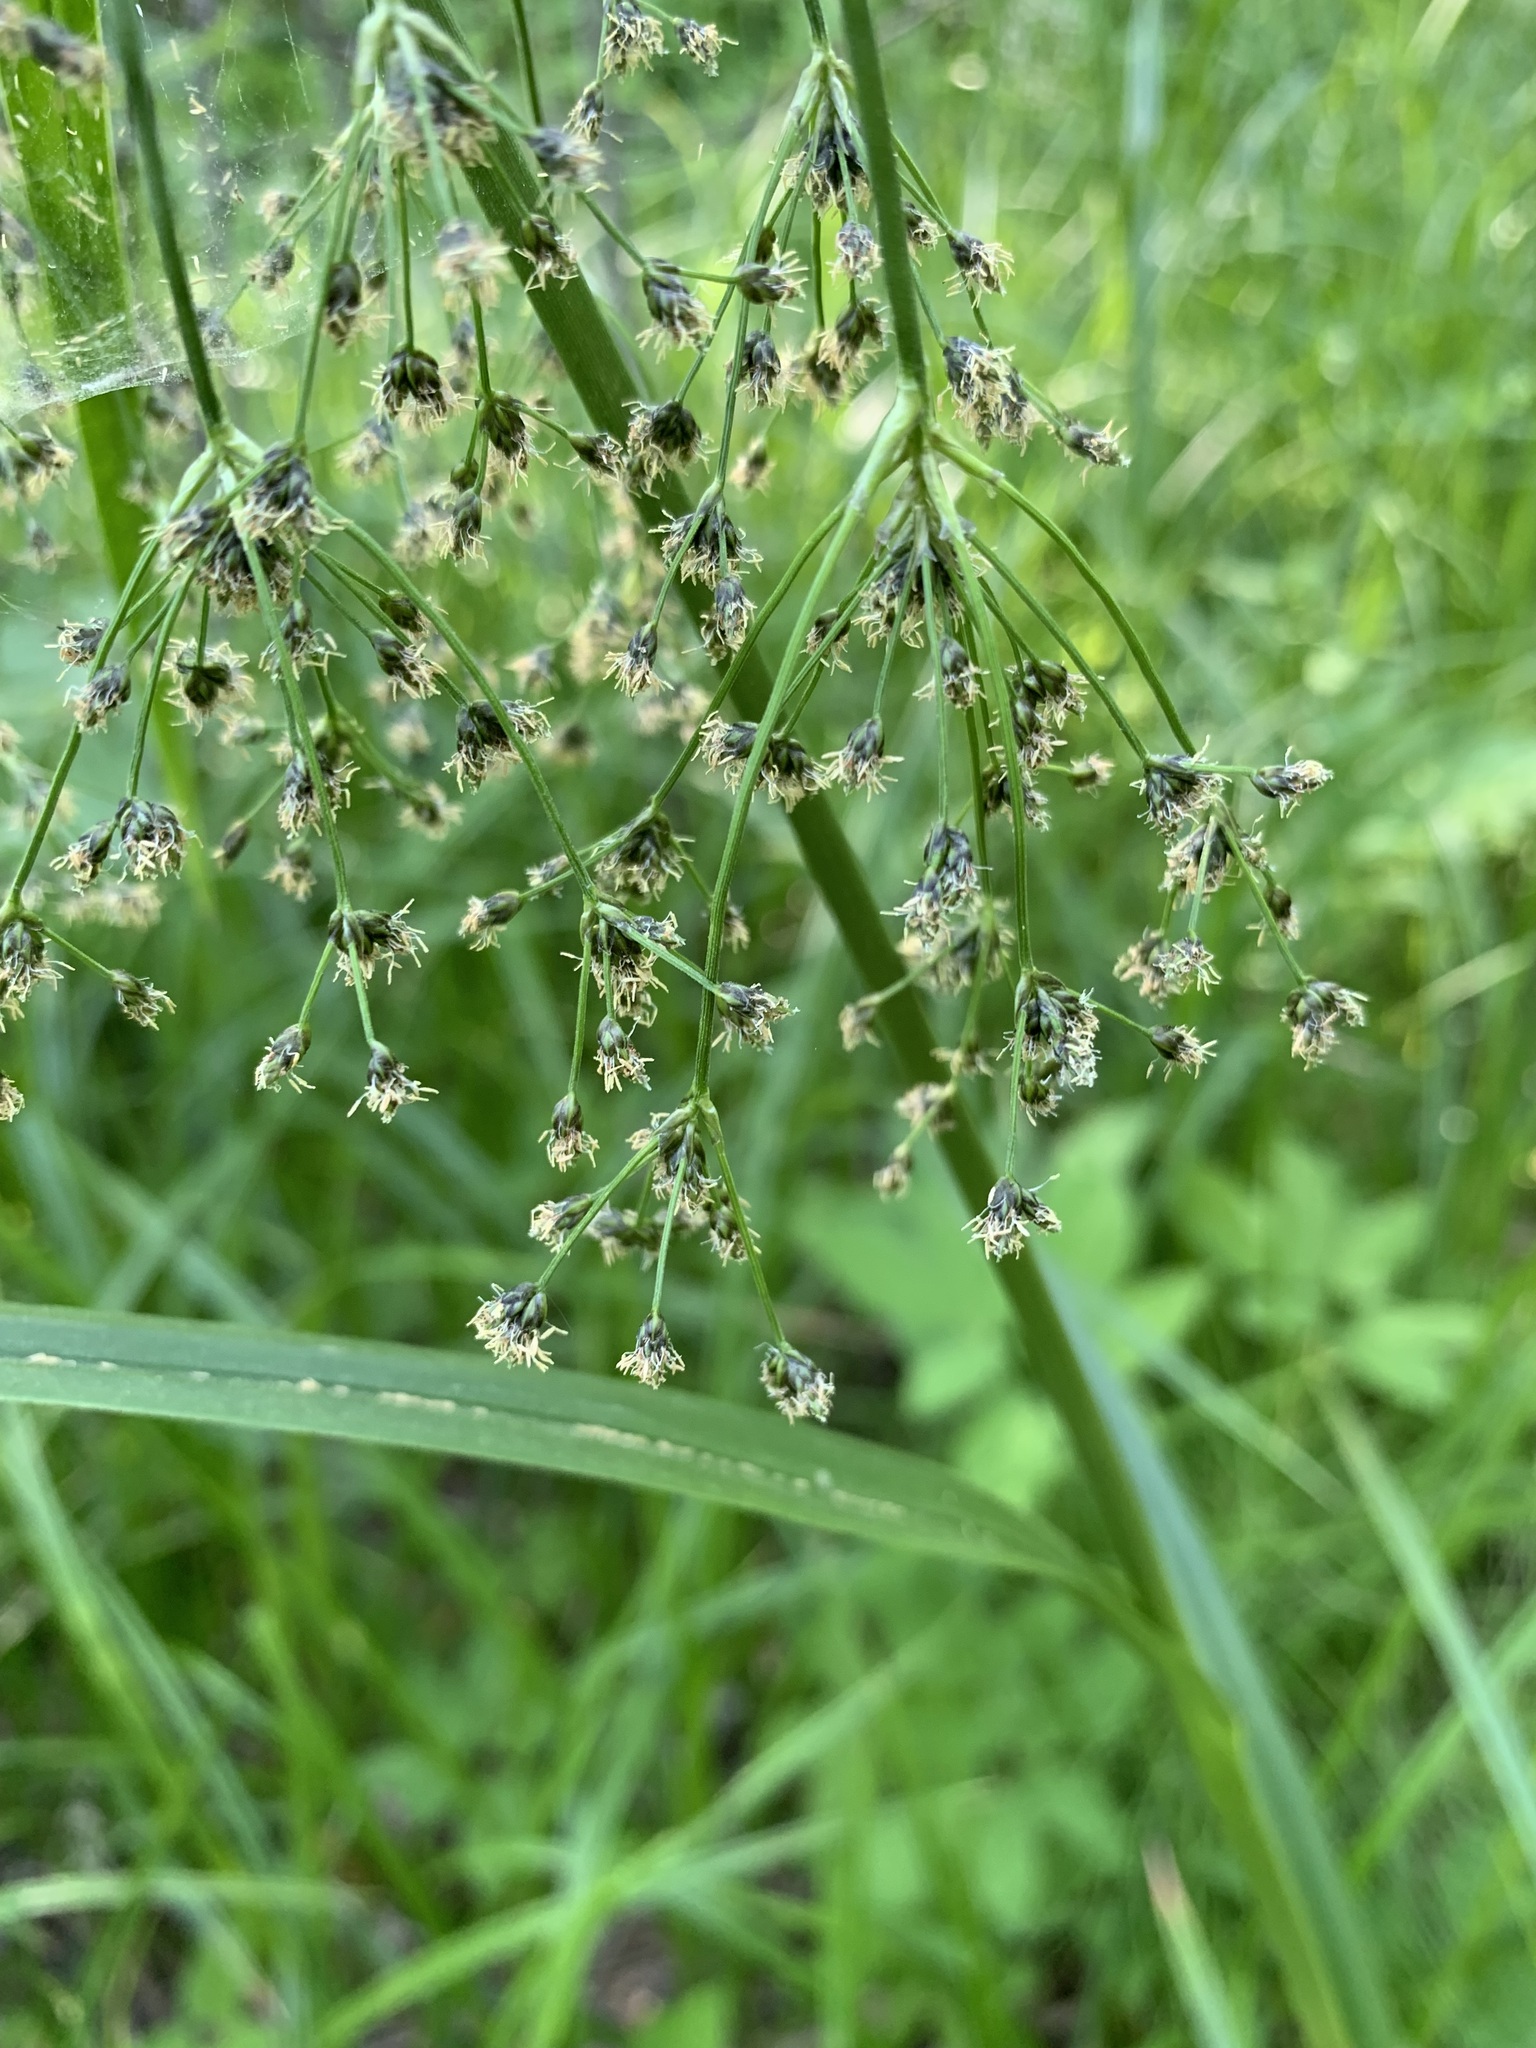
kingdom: Plantae
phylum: Tracheophyta
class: Liliopsida
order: Poales
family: Cyperaceae
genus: Scirpus
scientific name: Scirpus sylvaticus
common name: Wood club-rush
